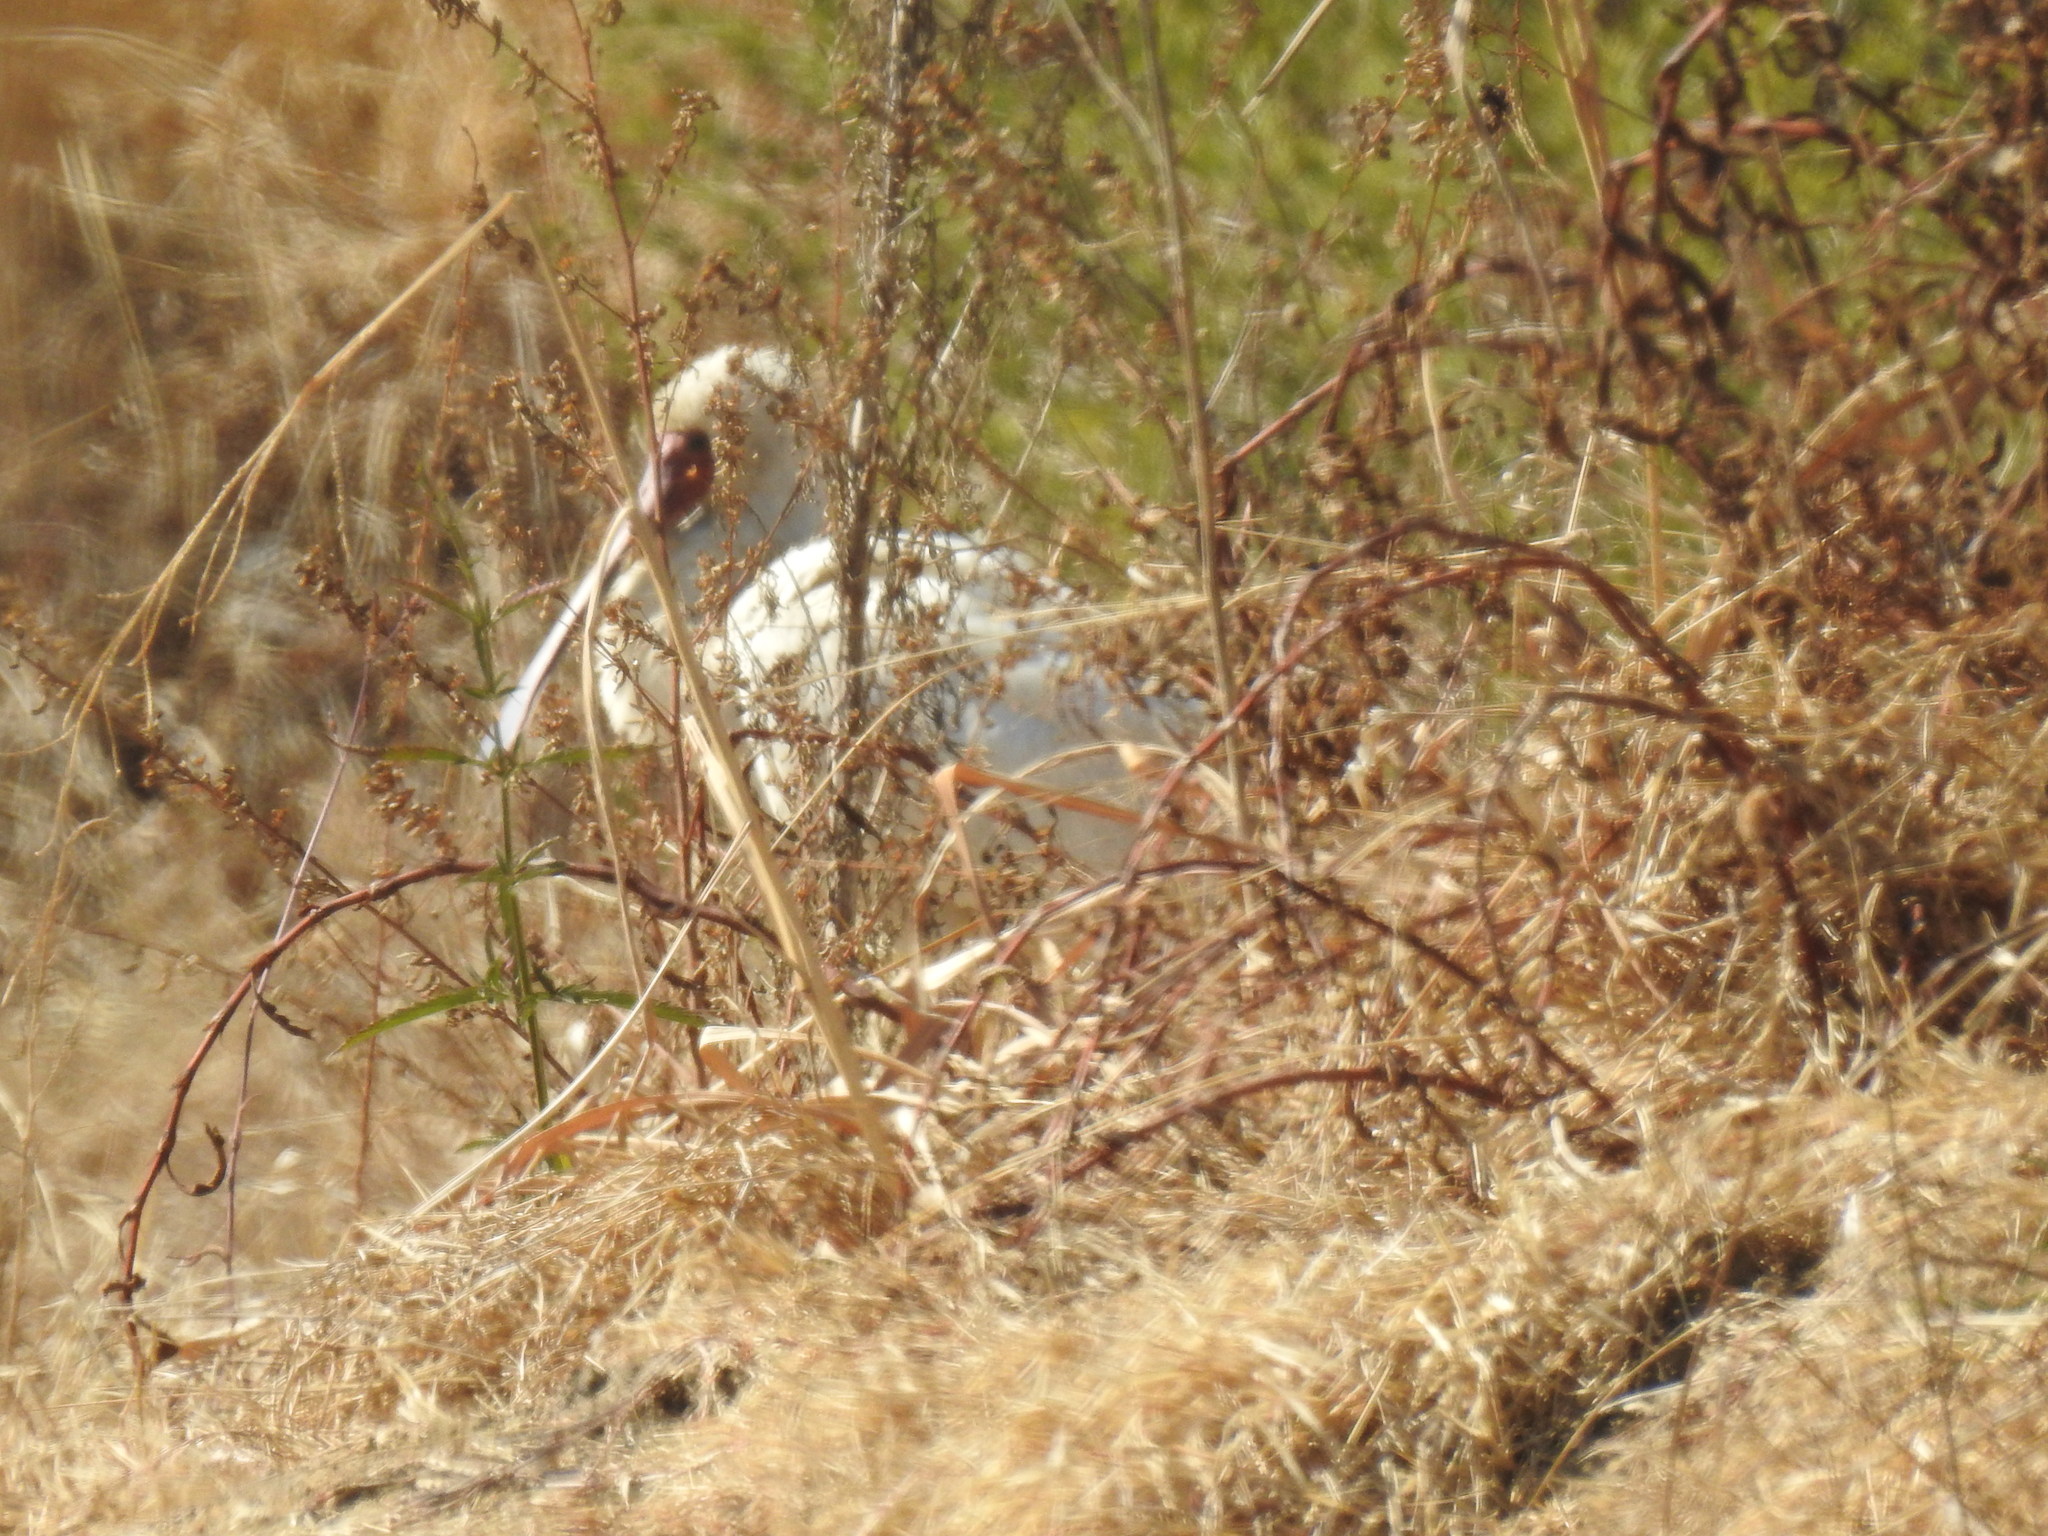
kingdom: Animalia
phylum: Chordata
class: Aves
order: Pelecaniformes
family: Threskiornithidae
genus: Platalea
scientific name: Platalea alba
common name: African spoonbill
